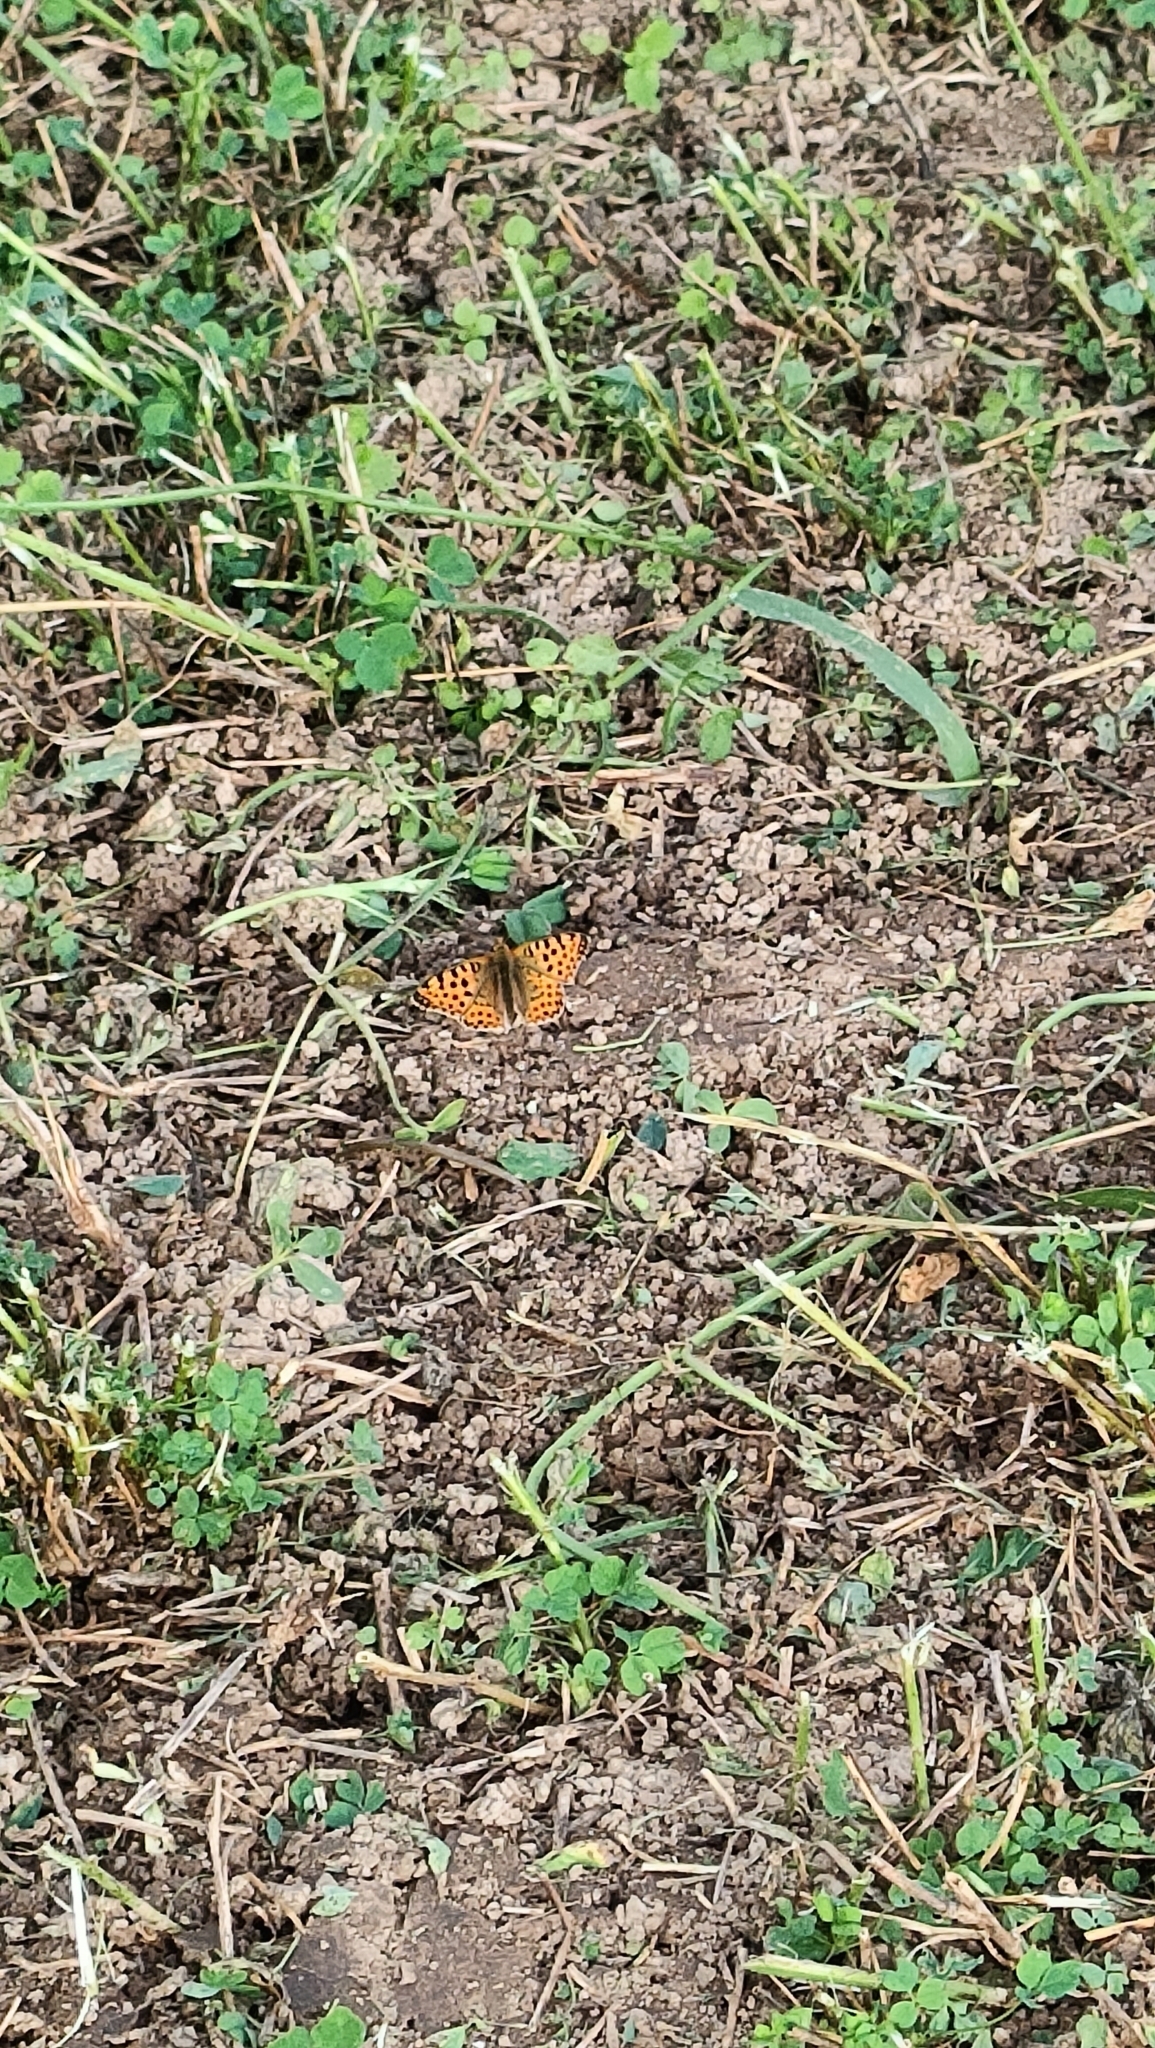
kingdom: Animalia
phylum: Arthropoda
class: Insecta
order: Lepidoptera
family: Nymphalidae
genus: Issoria
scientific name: Issoria lathonia
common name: Queen of spain fritillary
